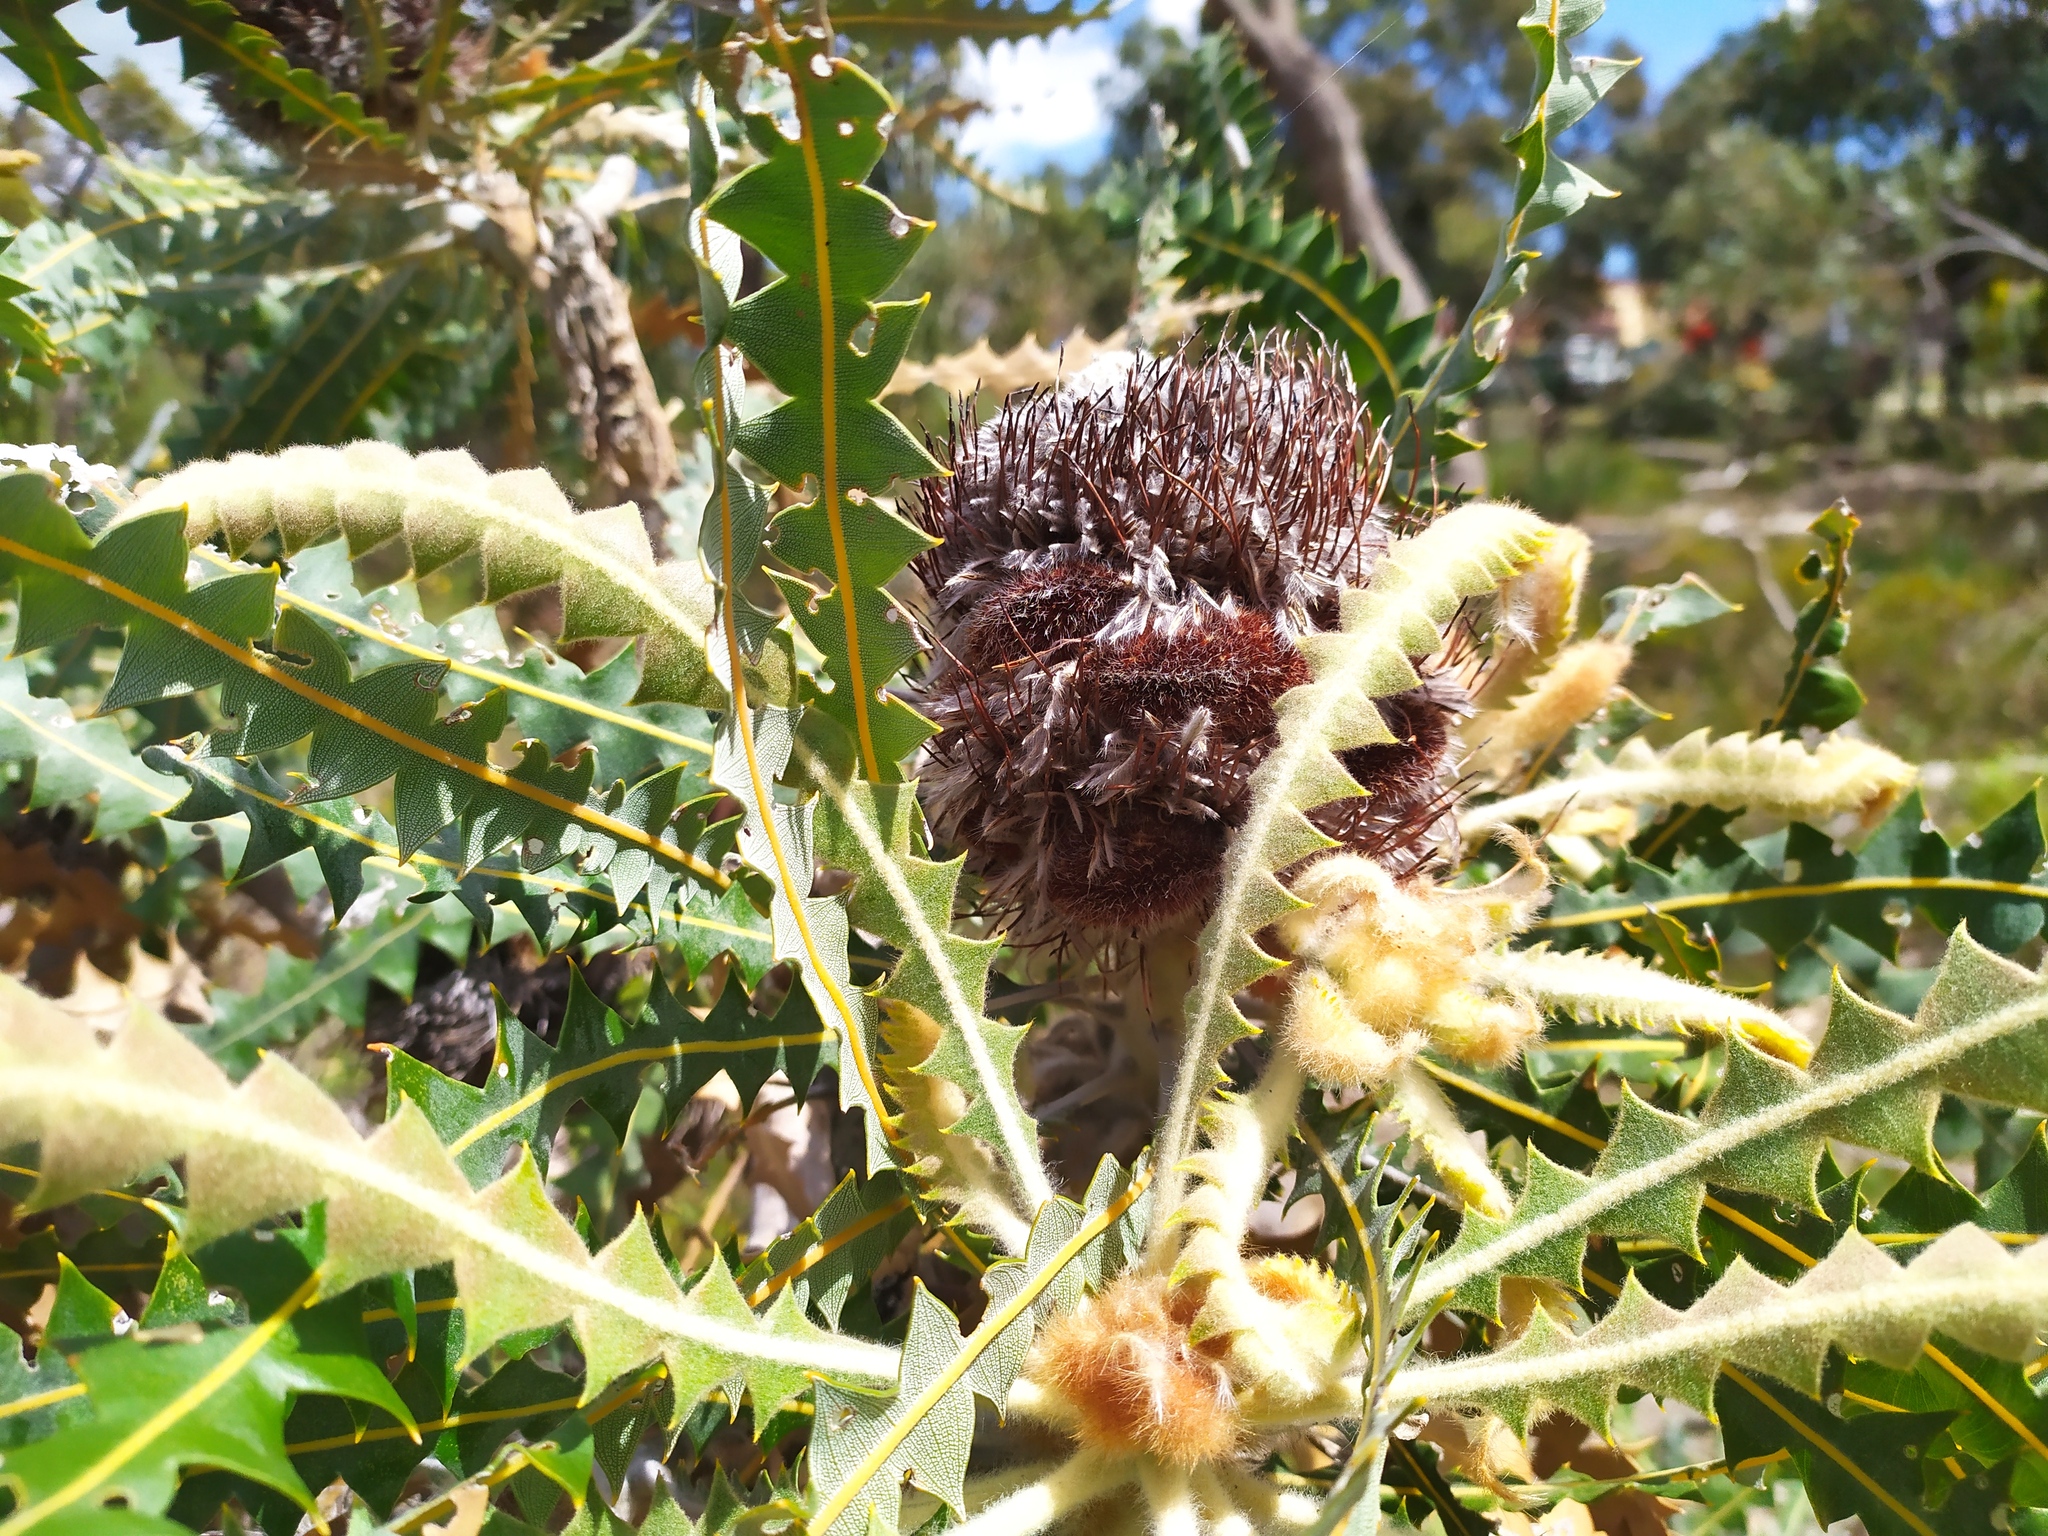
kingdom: Plantae
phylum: Tracheophyta
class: Magnoliopsida
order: Proteales
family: Proteaceae
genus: Banksia
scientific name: Banksia ashbyi
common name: Ashby's banksia
